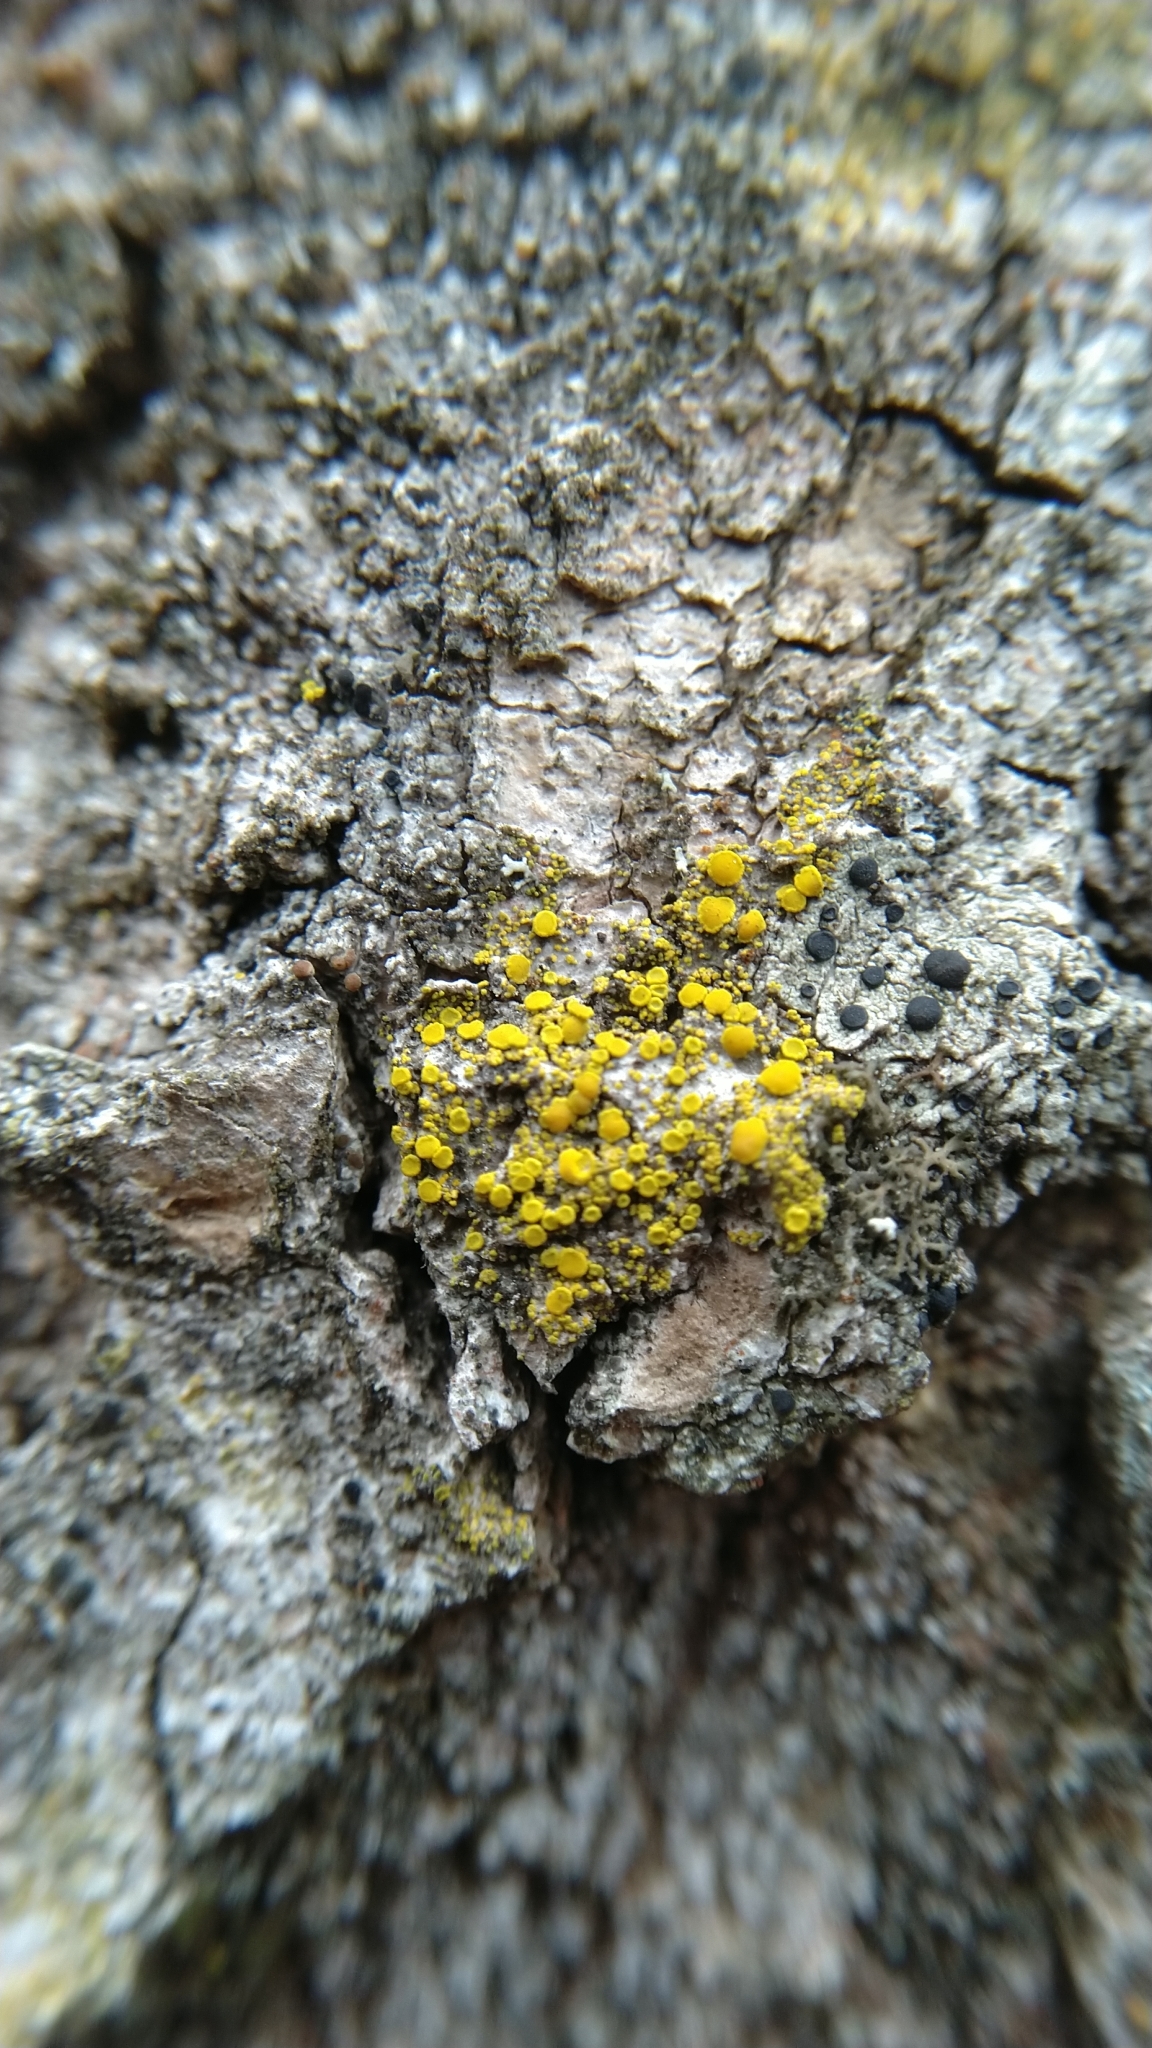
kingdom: Fungi
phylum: Ascomycota
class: Candelariomycetes
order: Candelariales
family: Candelariaceae
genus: Candelariella
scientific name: Candelariella
